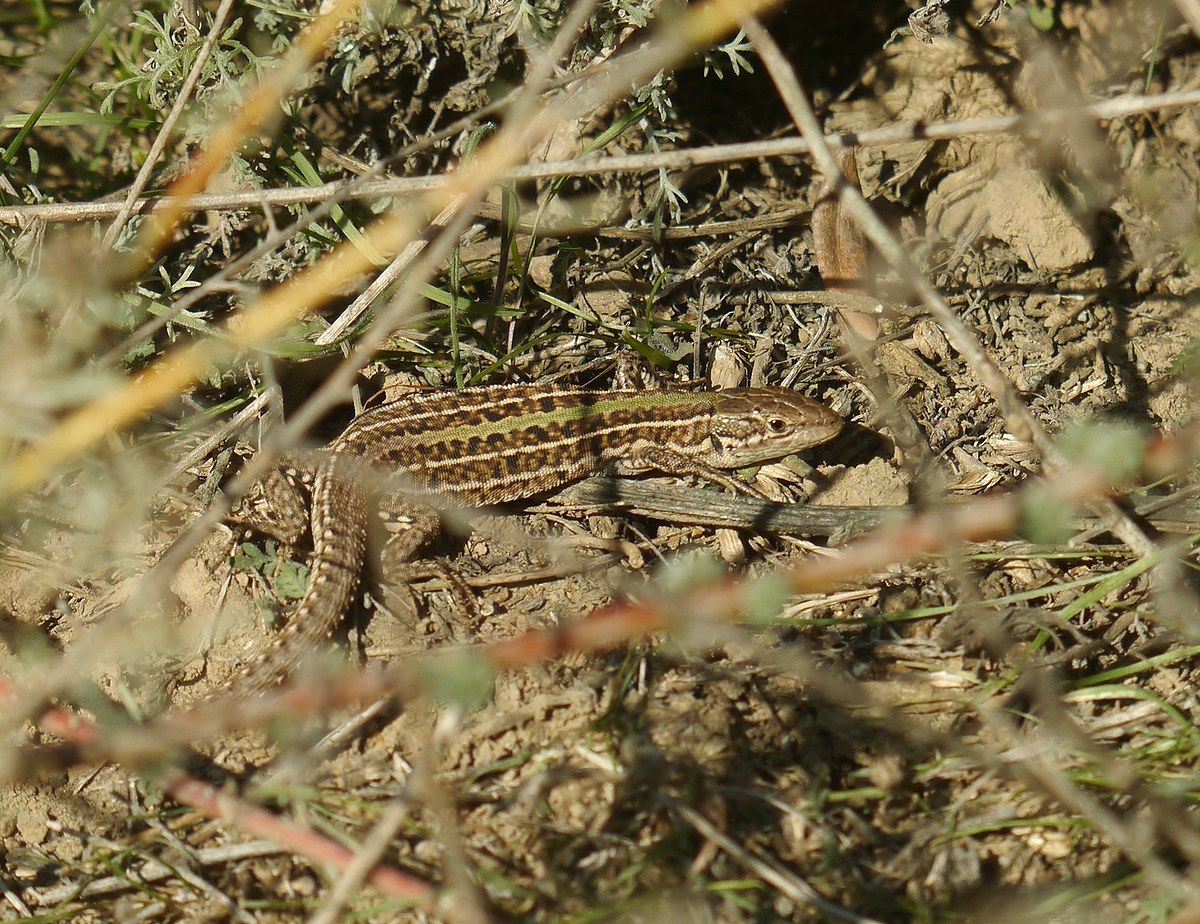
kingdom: Animalia
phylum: Chordata
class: Squamata
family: Lacertidae
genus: Podarcis
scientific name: Podarcis tauricus
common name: Balkan wall lizard
